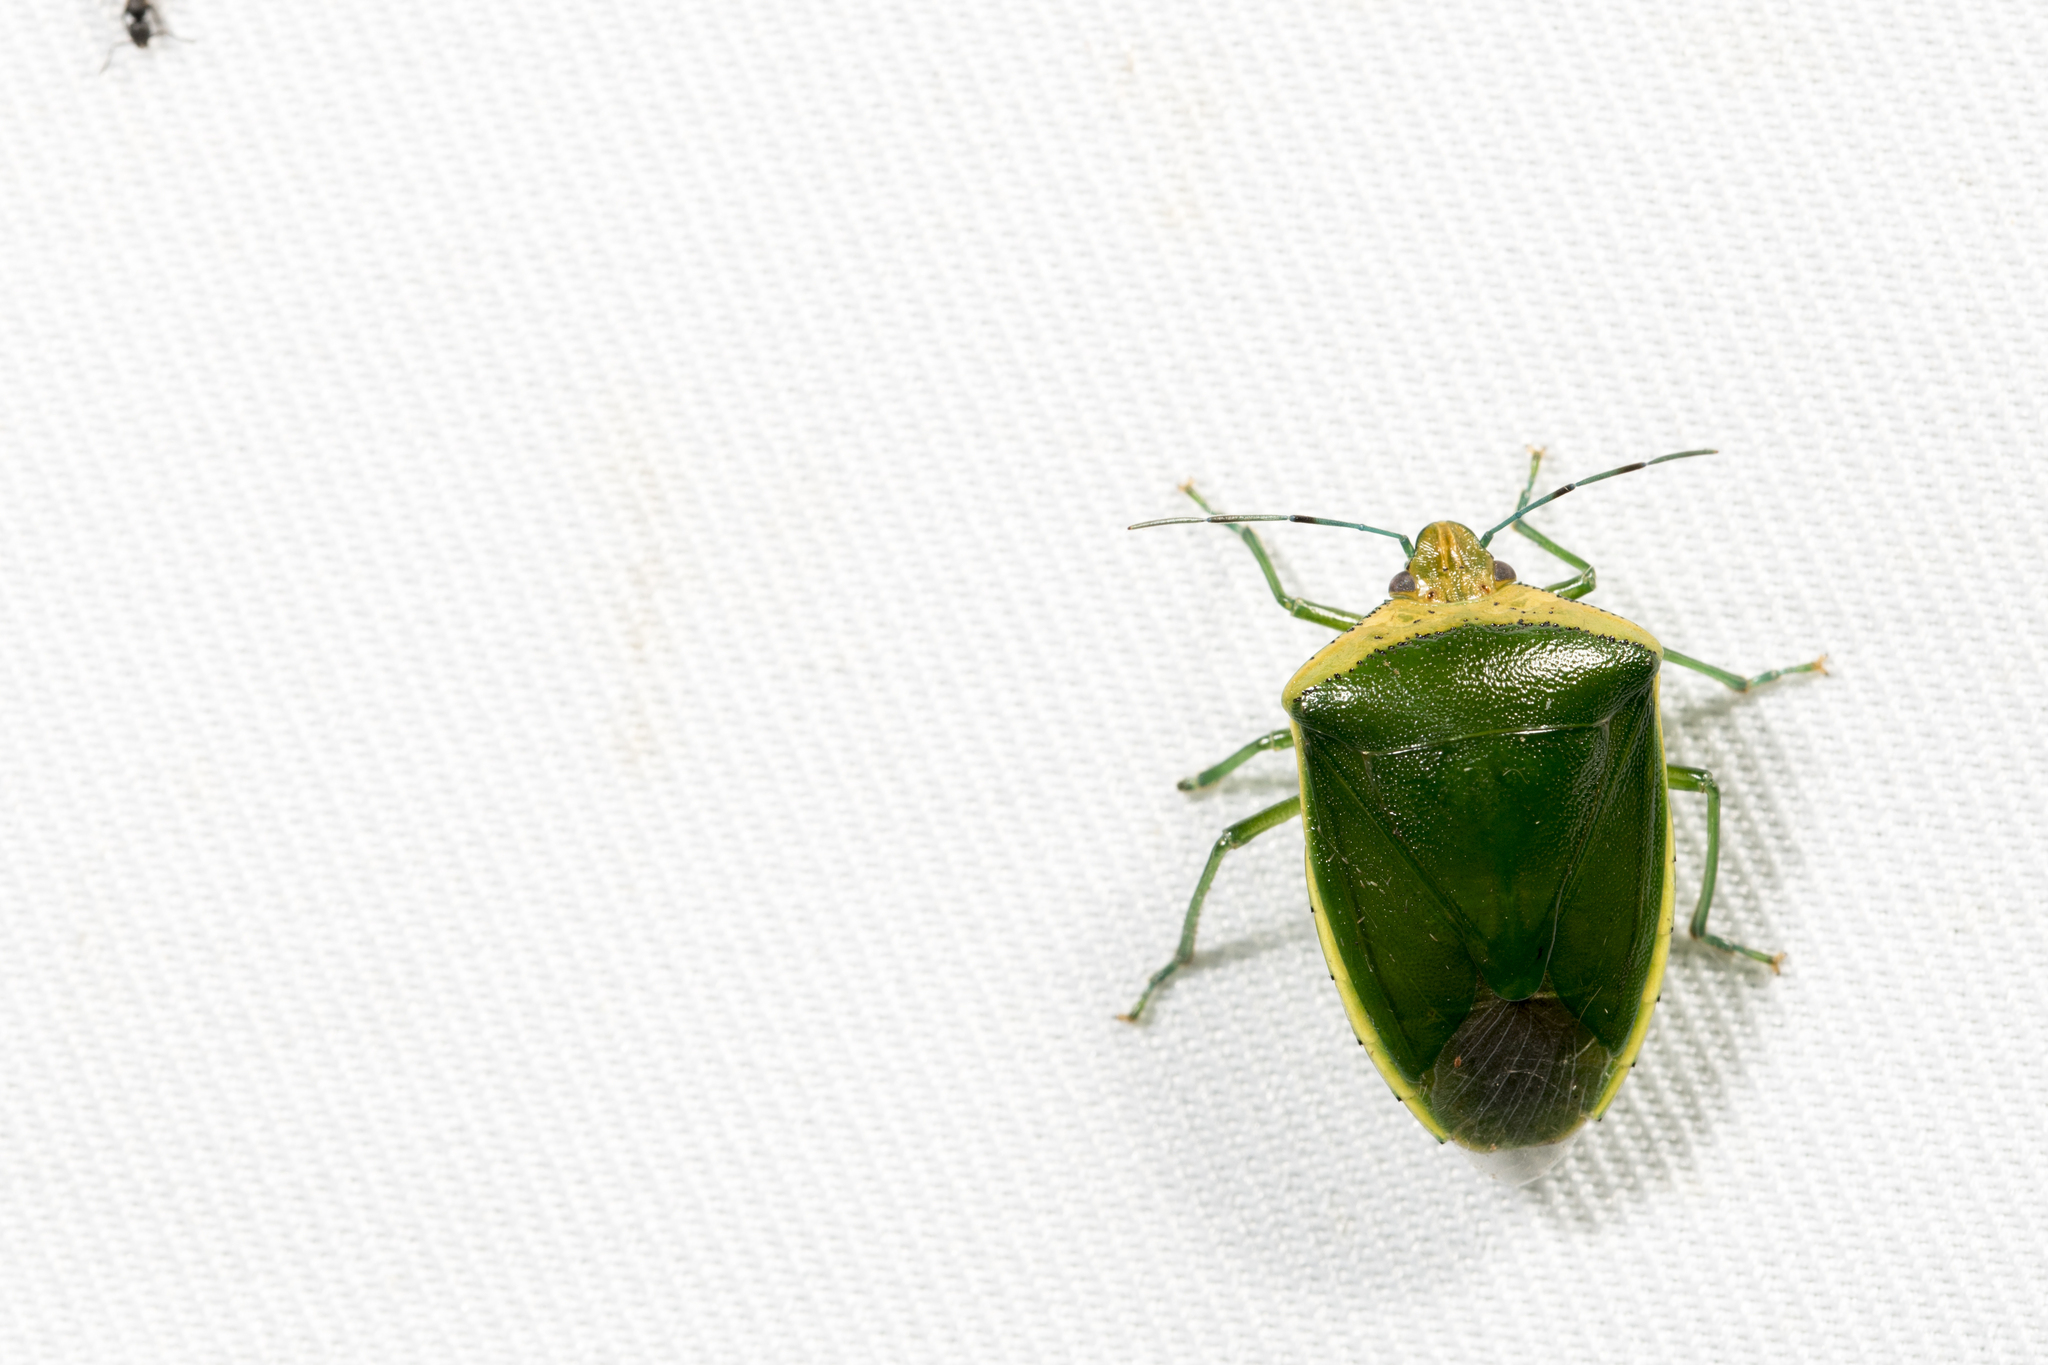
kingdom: Animalia
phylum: Arthropoda
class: Insecta
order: Hemiptera
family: Pentatomidae
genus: Glaucias
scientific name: Glaucias crassus
